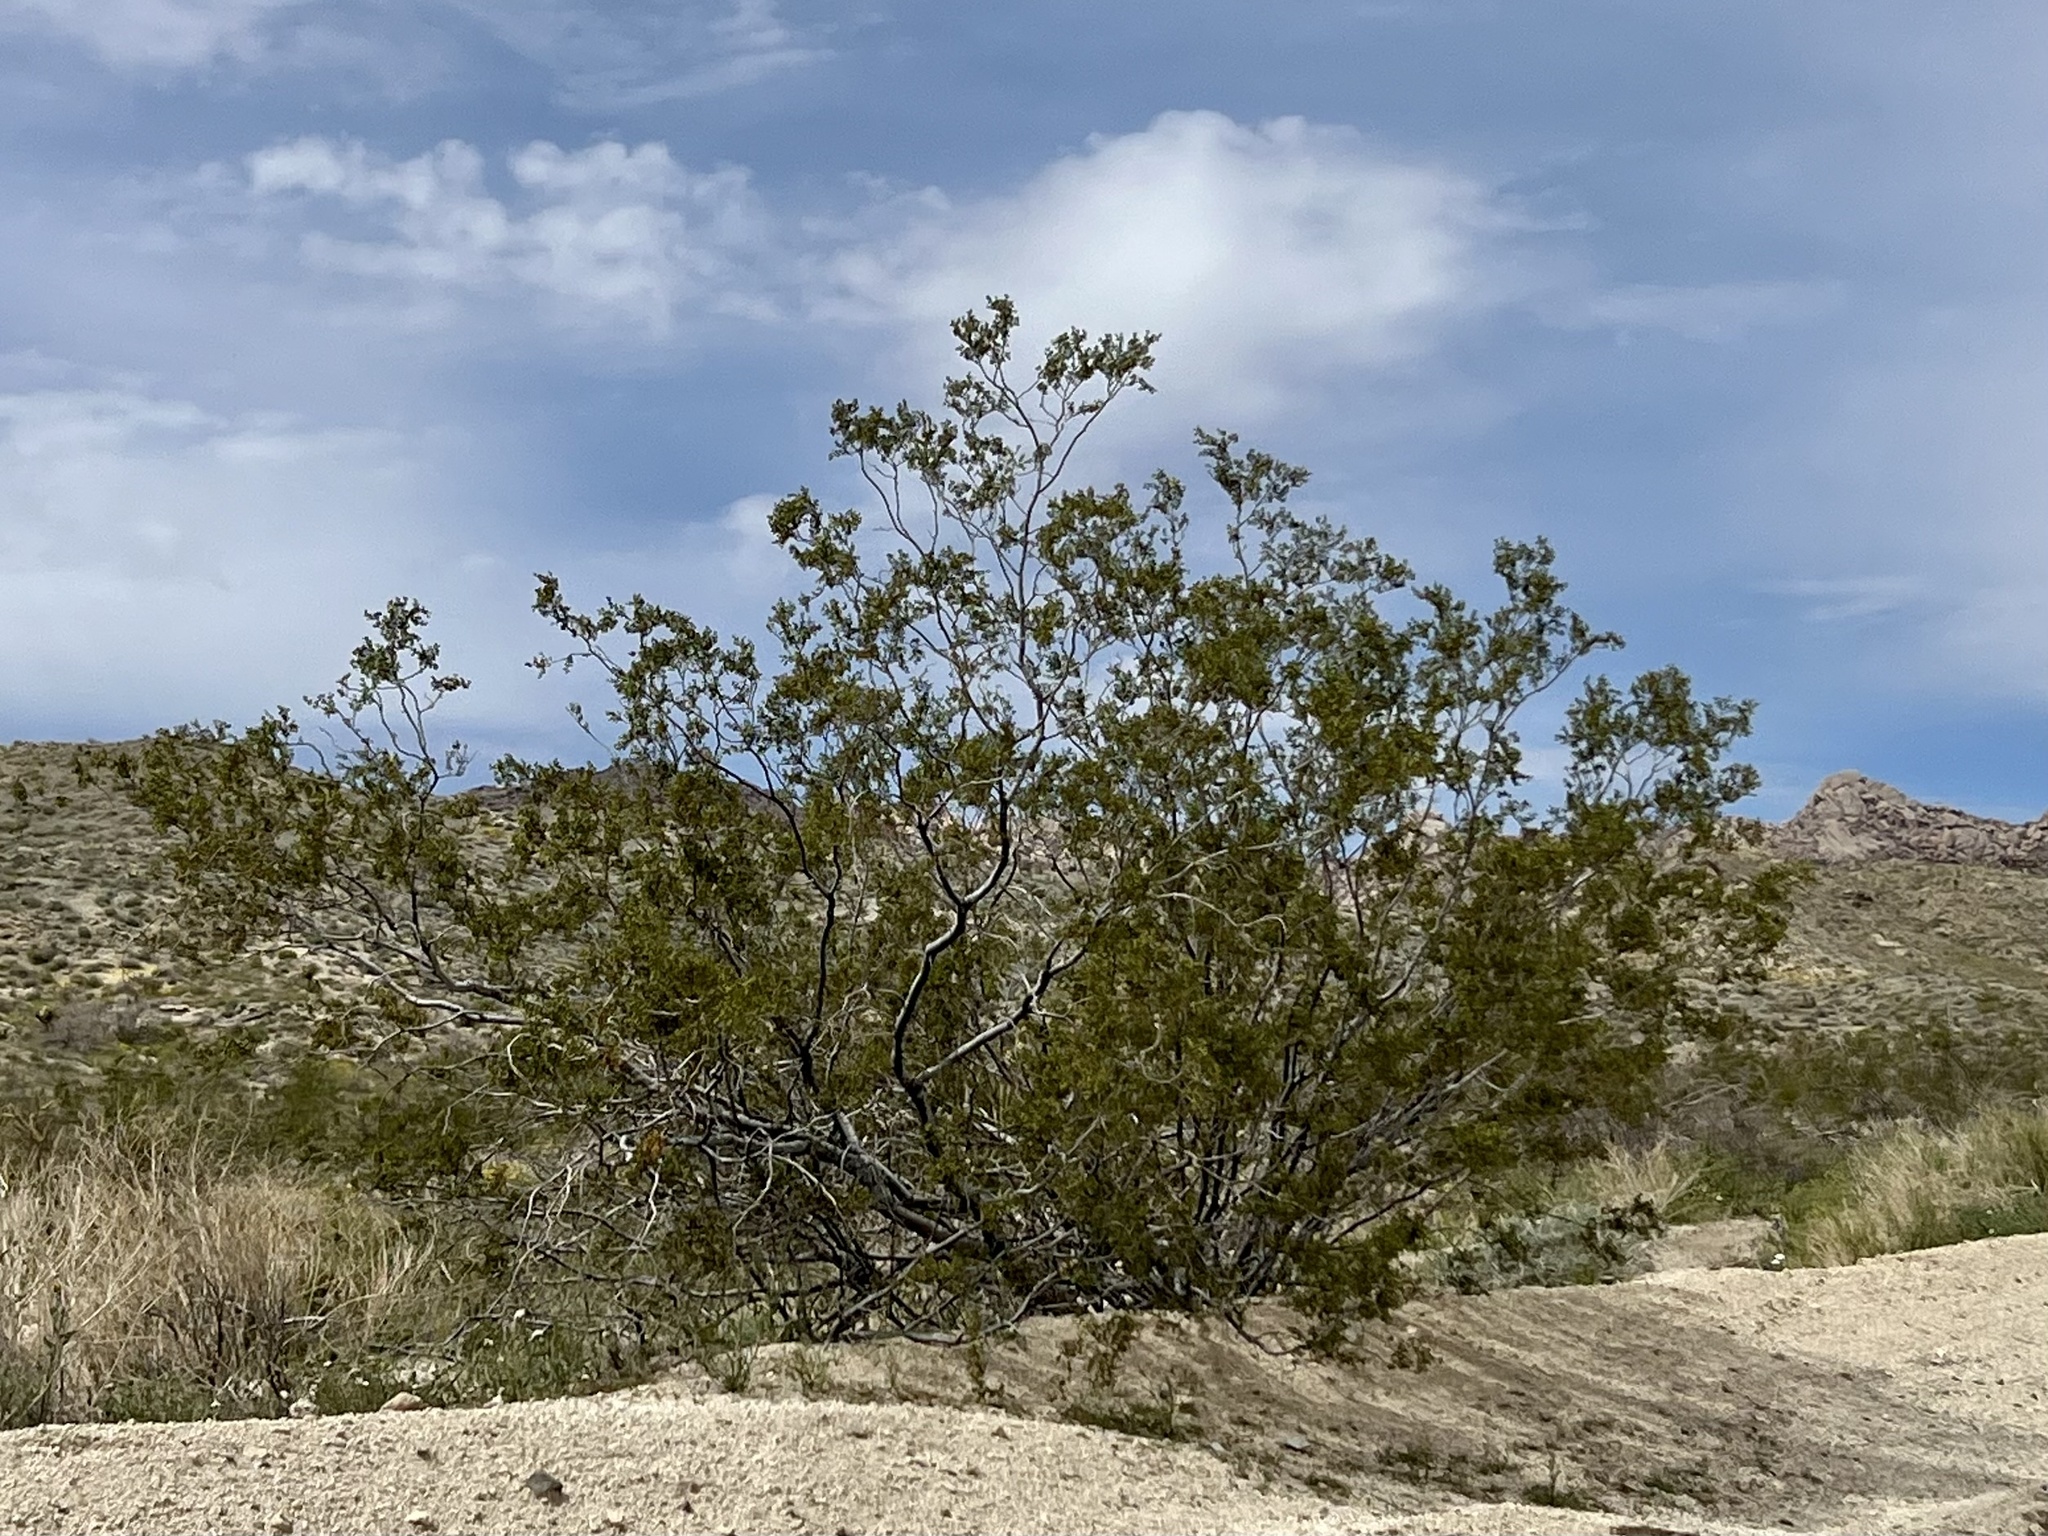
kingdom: Plantae
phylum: Tracheophyta
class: Magnoliopsida
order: Zygophyllales
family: Zygophyllaceae
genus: Larrea
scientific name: Larrea tridentata
